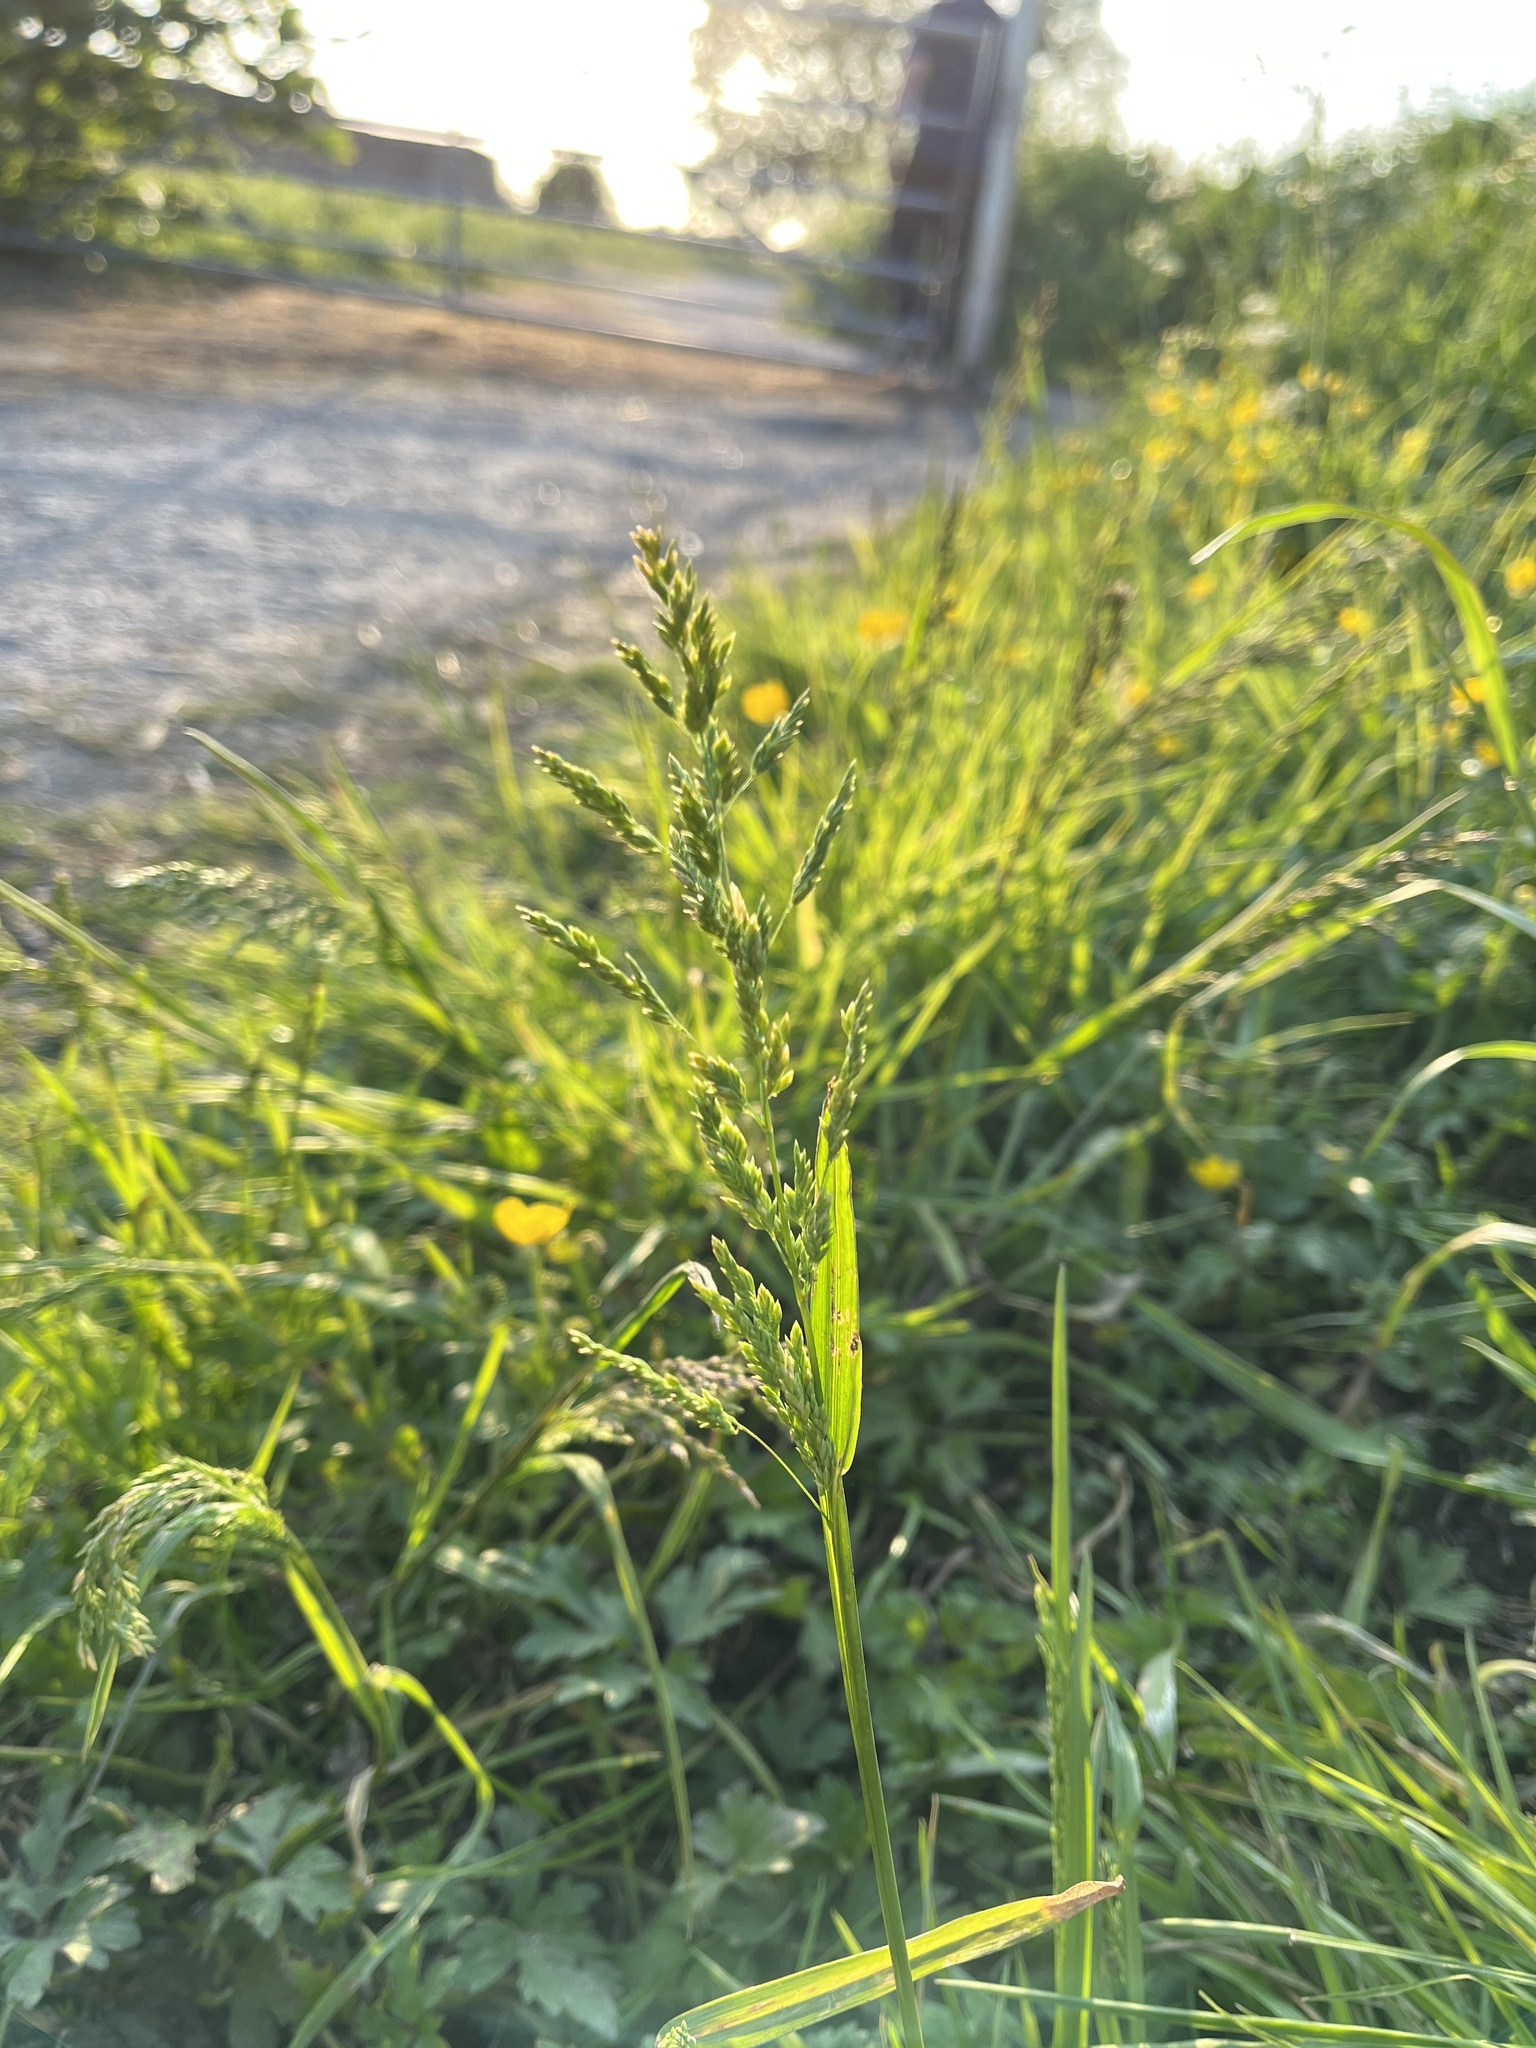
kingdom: Plantae
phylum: Tracheophyta
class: Liliopsida
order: Poales
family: Poaceae
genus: Poa
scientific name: Poa trivialis
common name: Rough bluegrass
